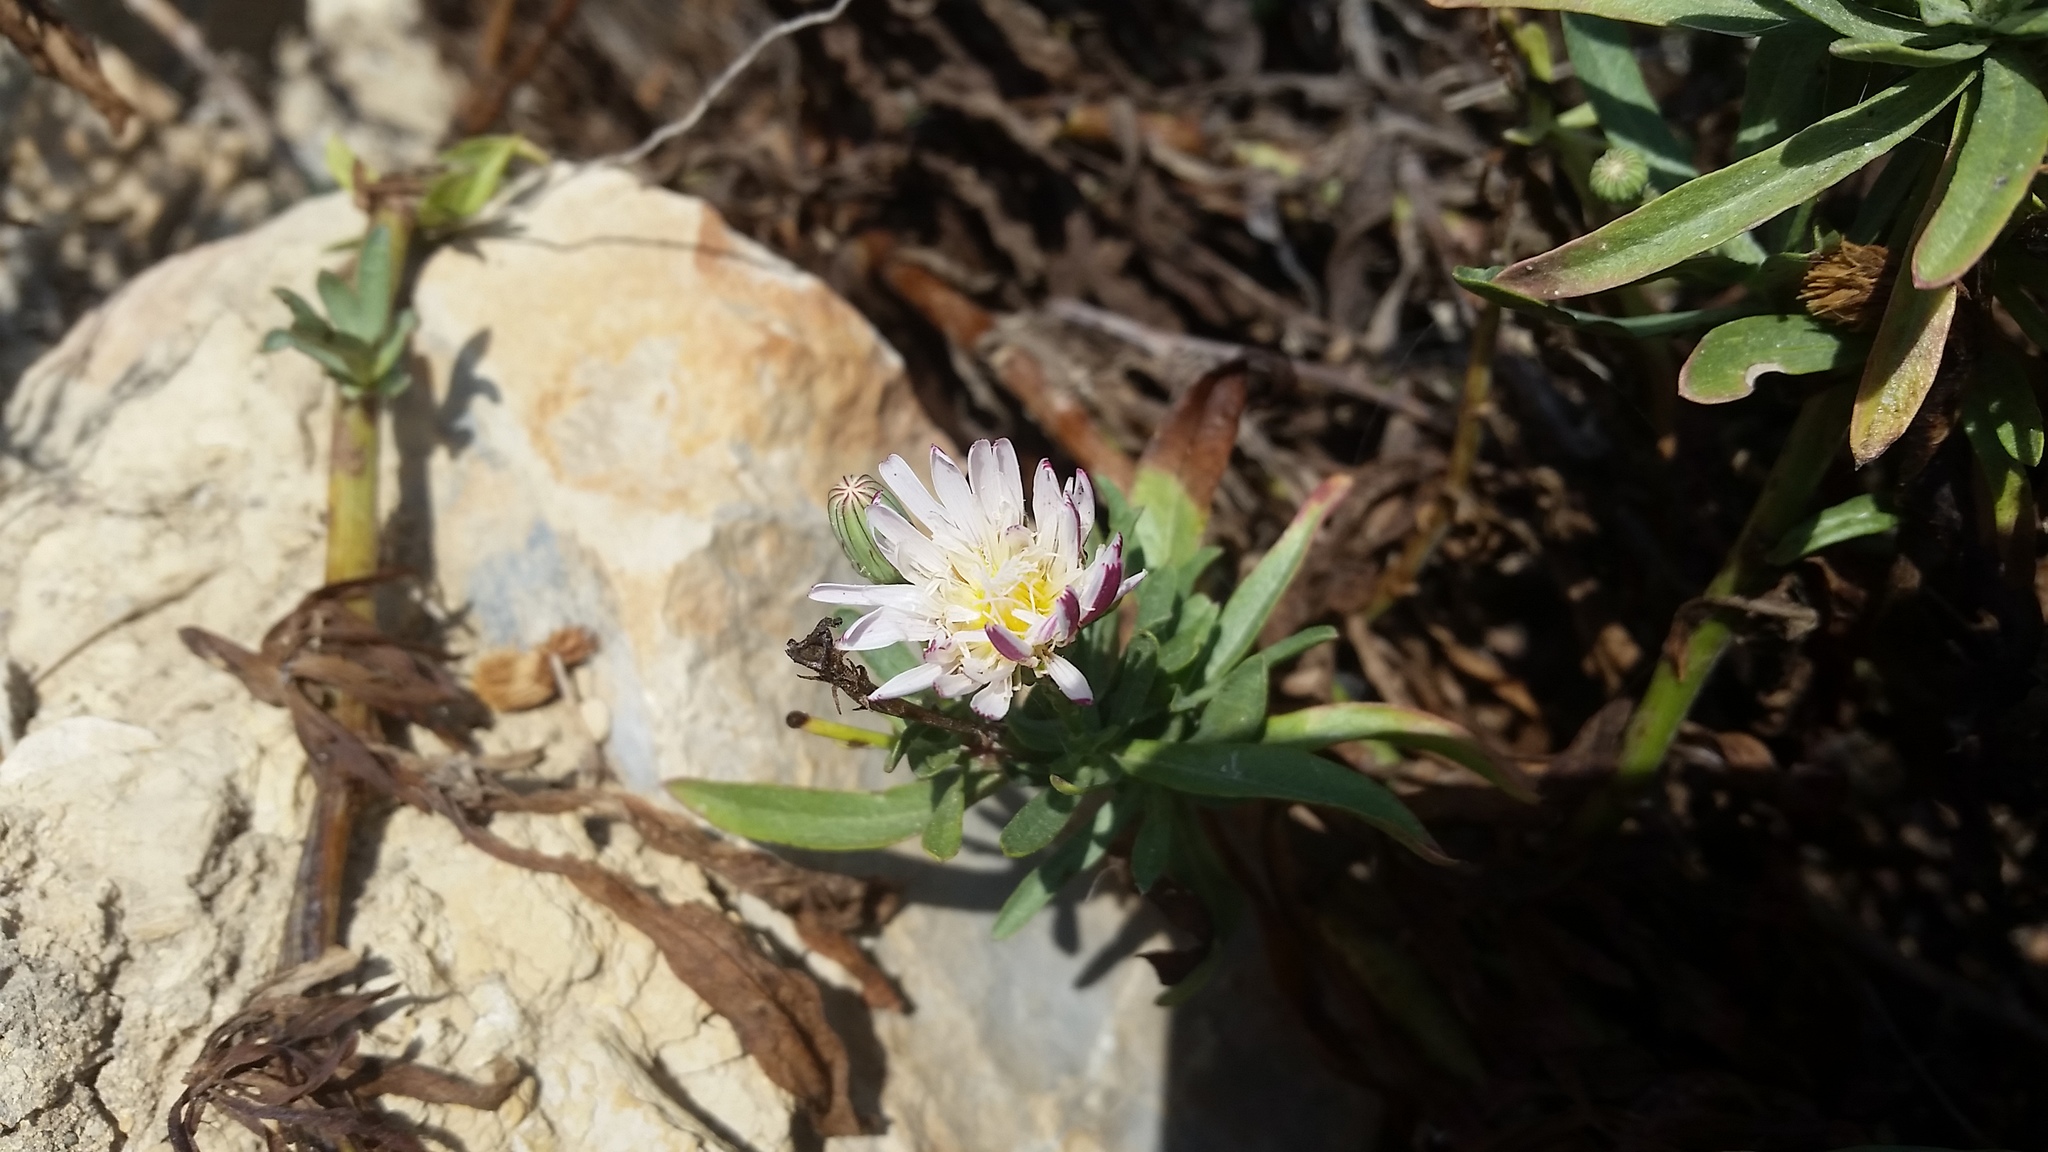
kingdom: Plantae
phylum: Tracheophyta
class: Magnoliopsida
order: Asterales
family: Asteraceae
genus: Malacothrix
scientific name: Malacothrix saxatilis
